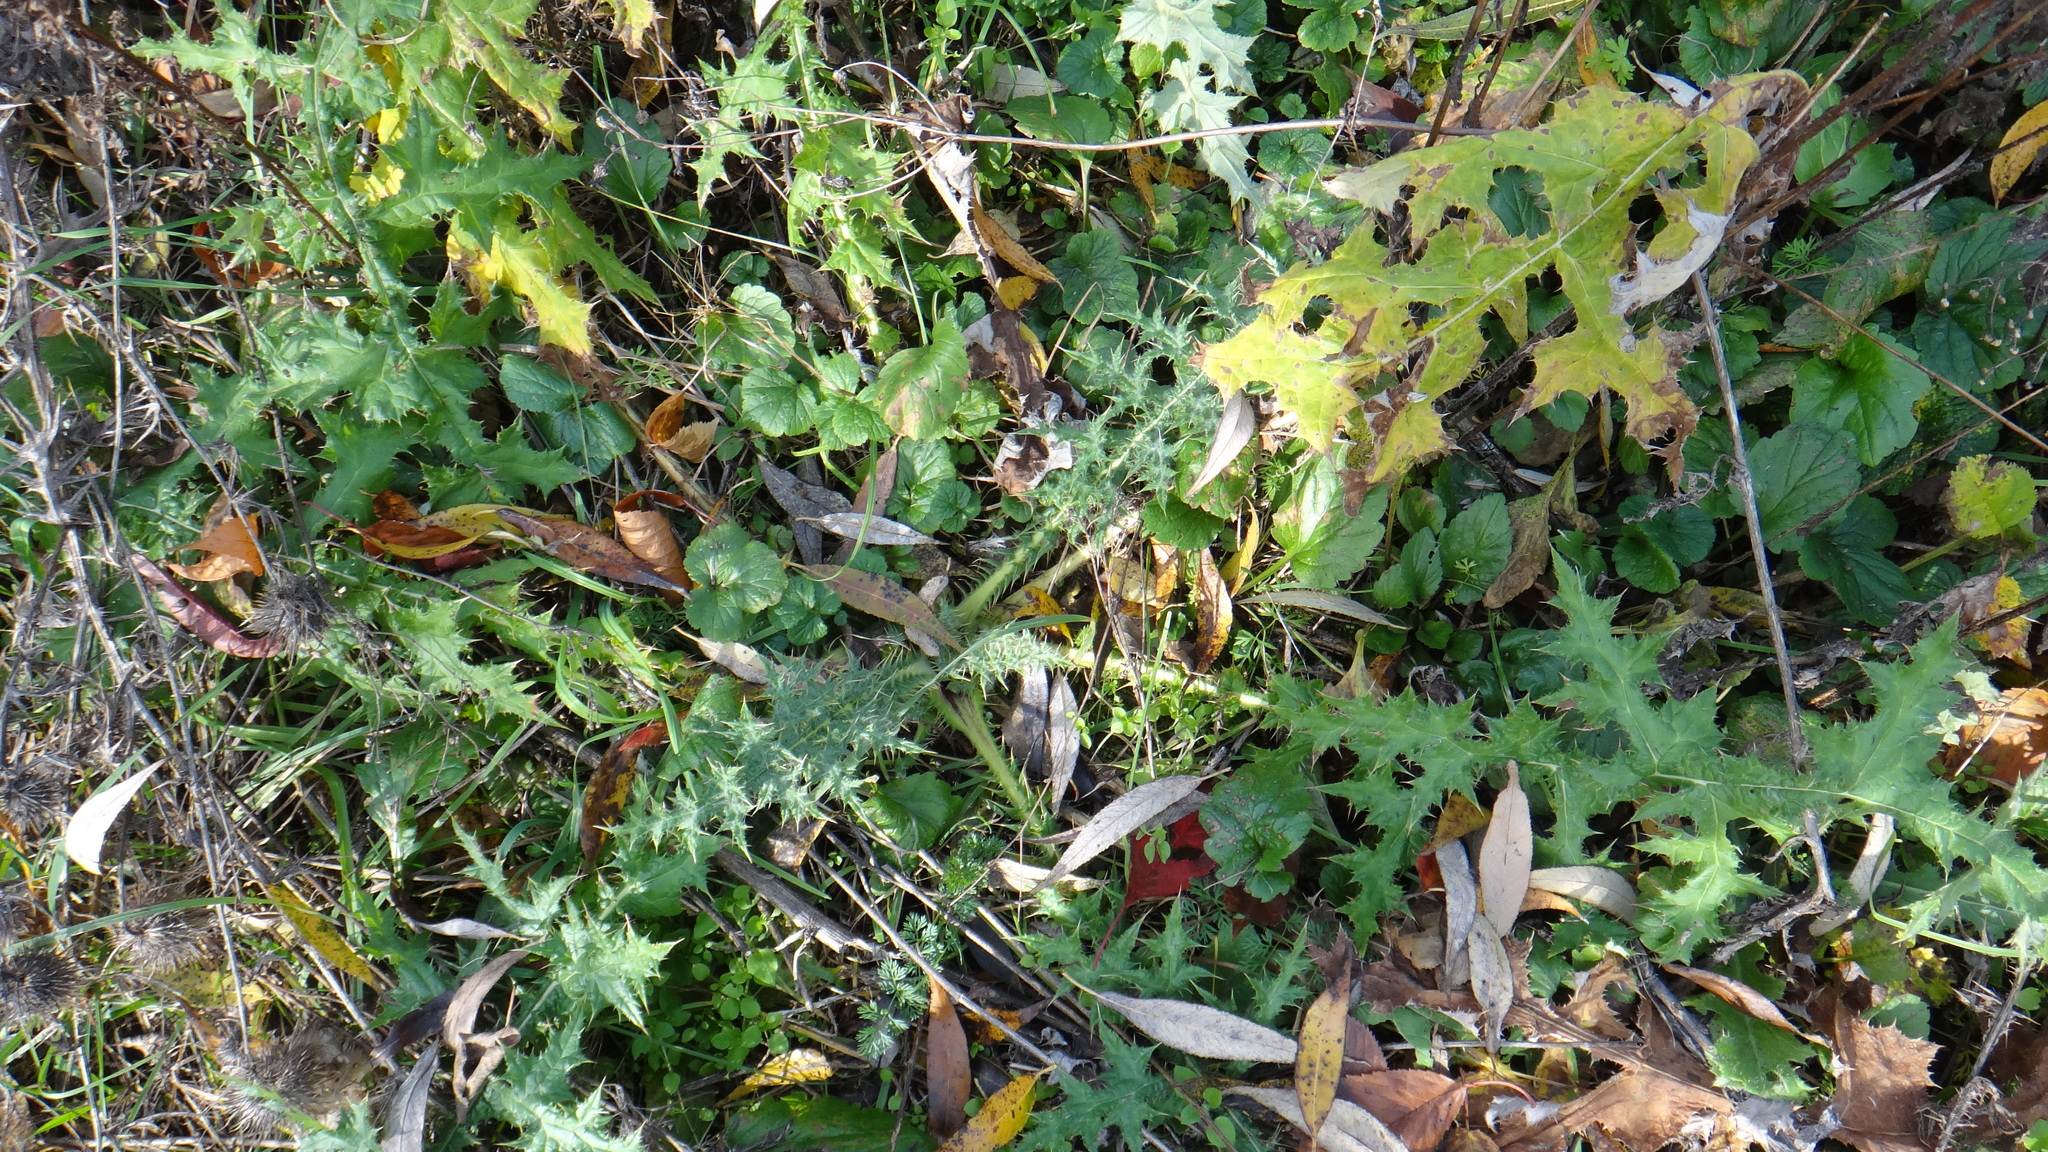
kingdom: Plantae
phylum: Tracheophyta
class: Magnoliopsida
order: Asterales
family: Asteraceae
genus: Echinops
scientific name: Echinops sphaerocephalus
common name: Glandular globe-thistle
